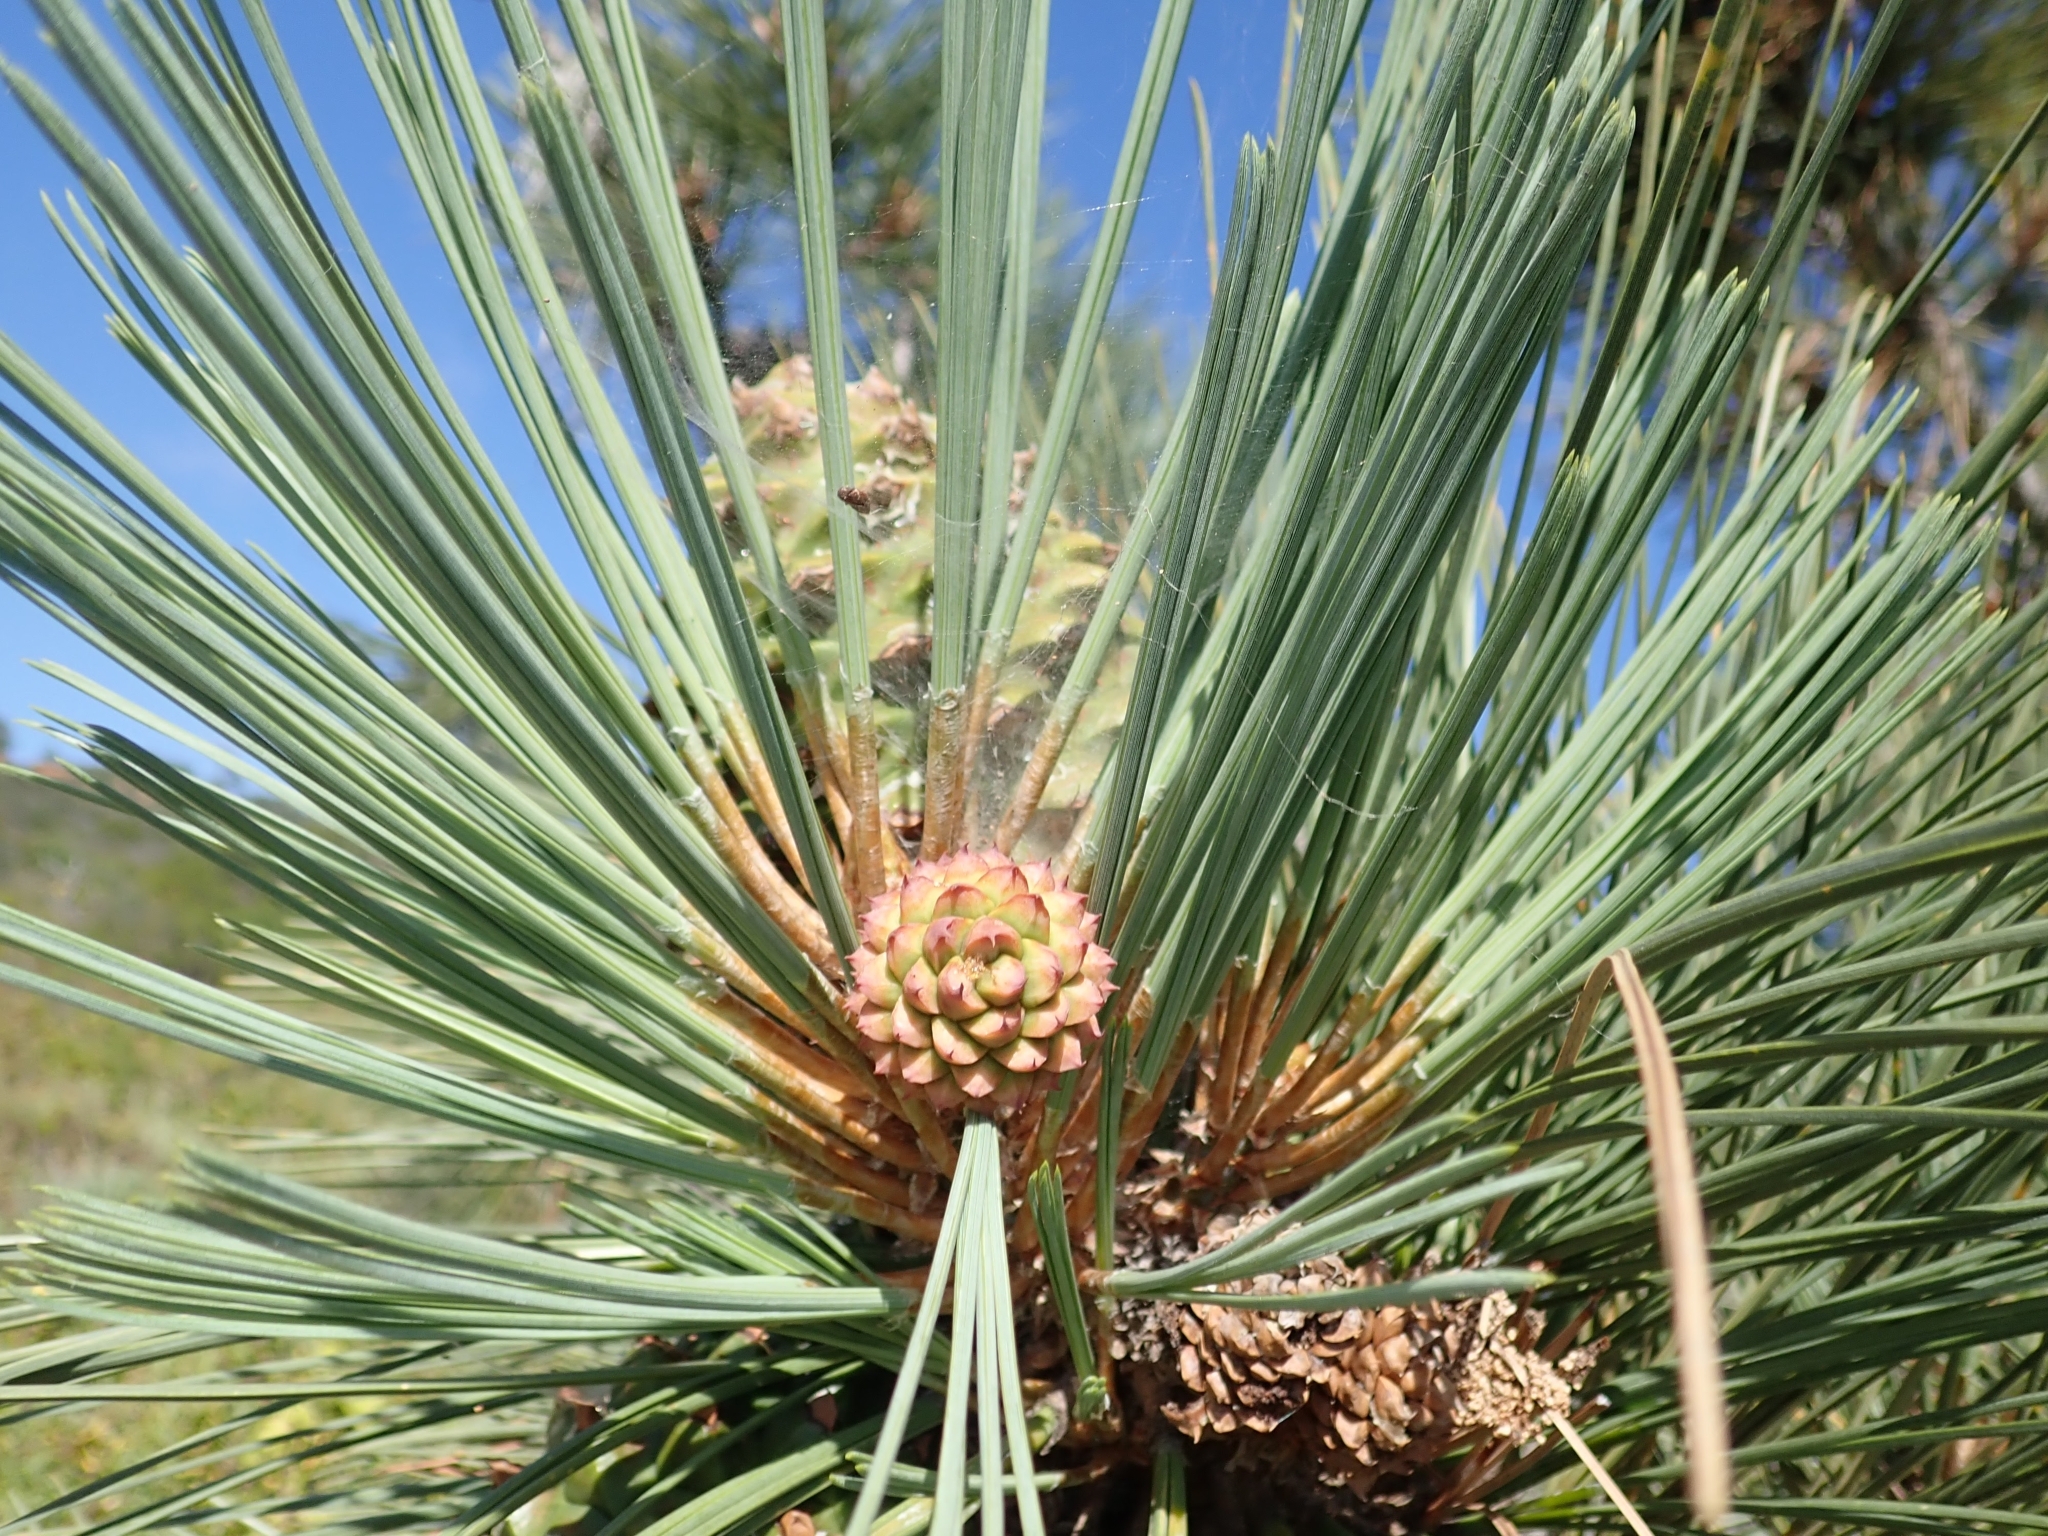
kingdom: Plantae
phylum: Tracheophyta
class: Pinopsida
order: Pinales
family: Pinaceae
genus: Pinus
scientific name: Pinus torreyana
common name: Torrey pine
